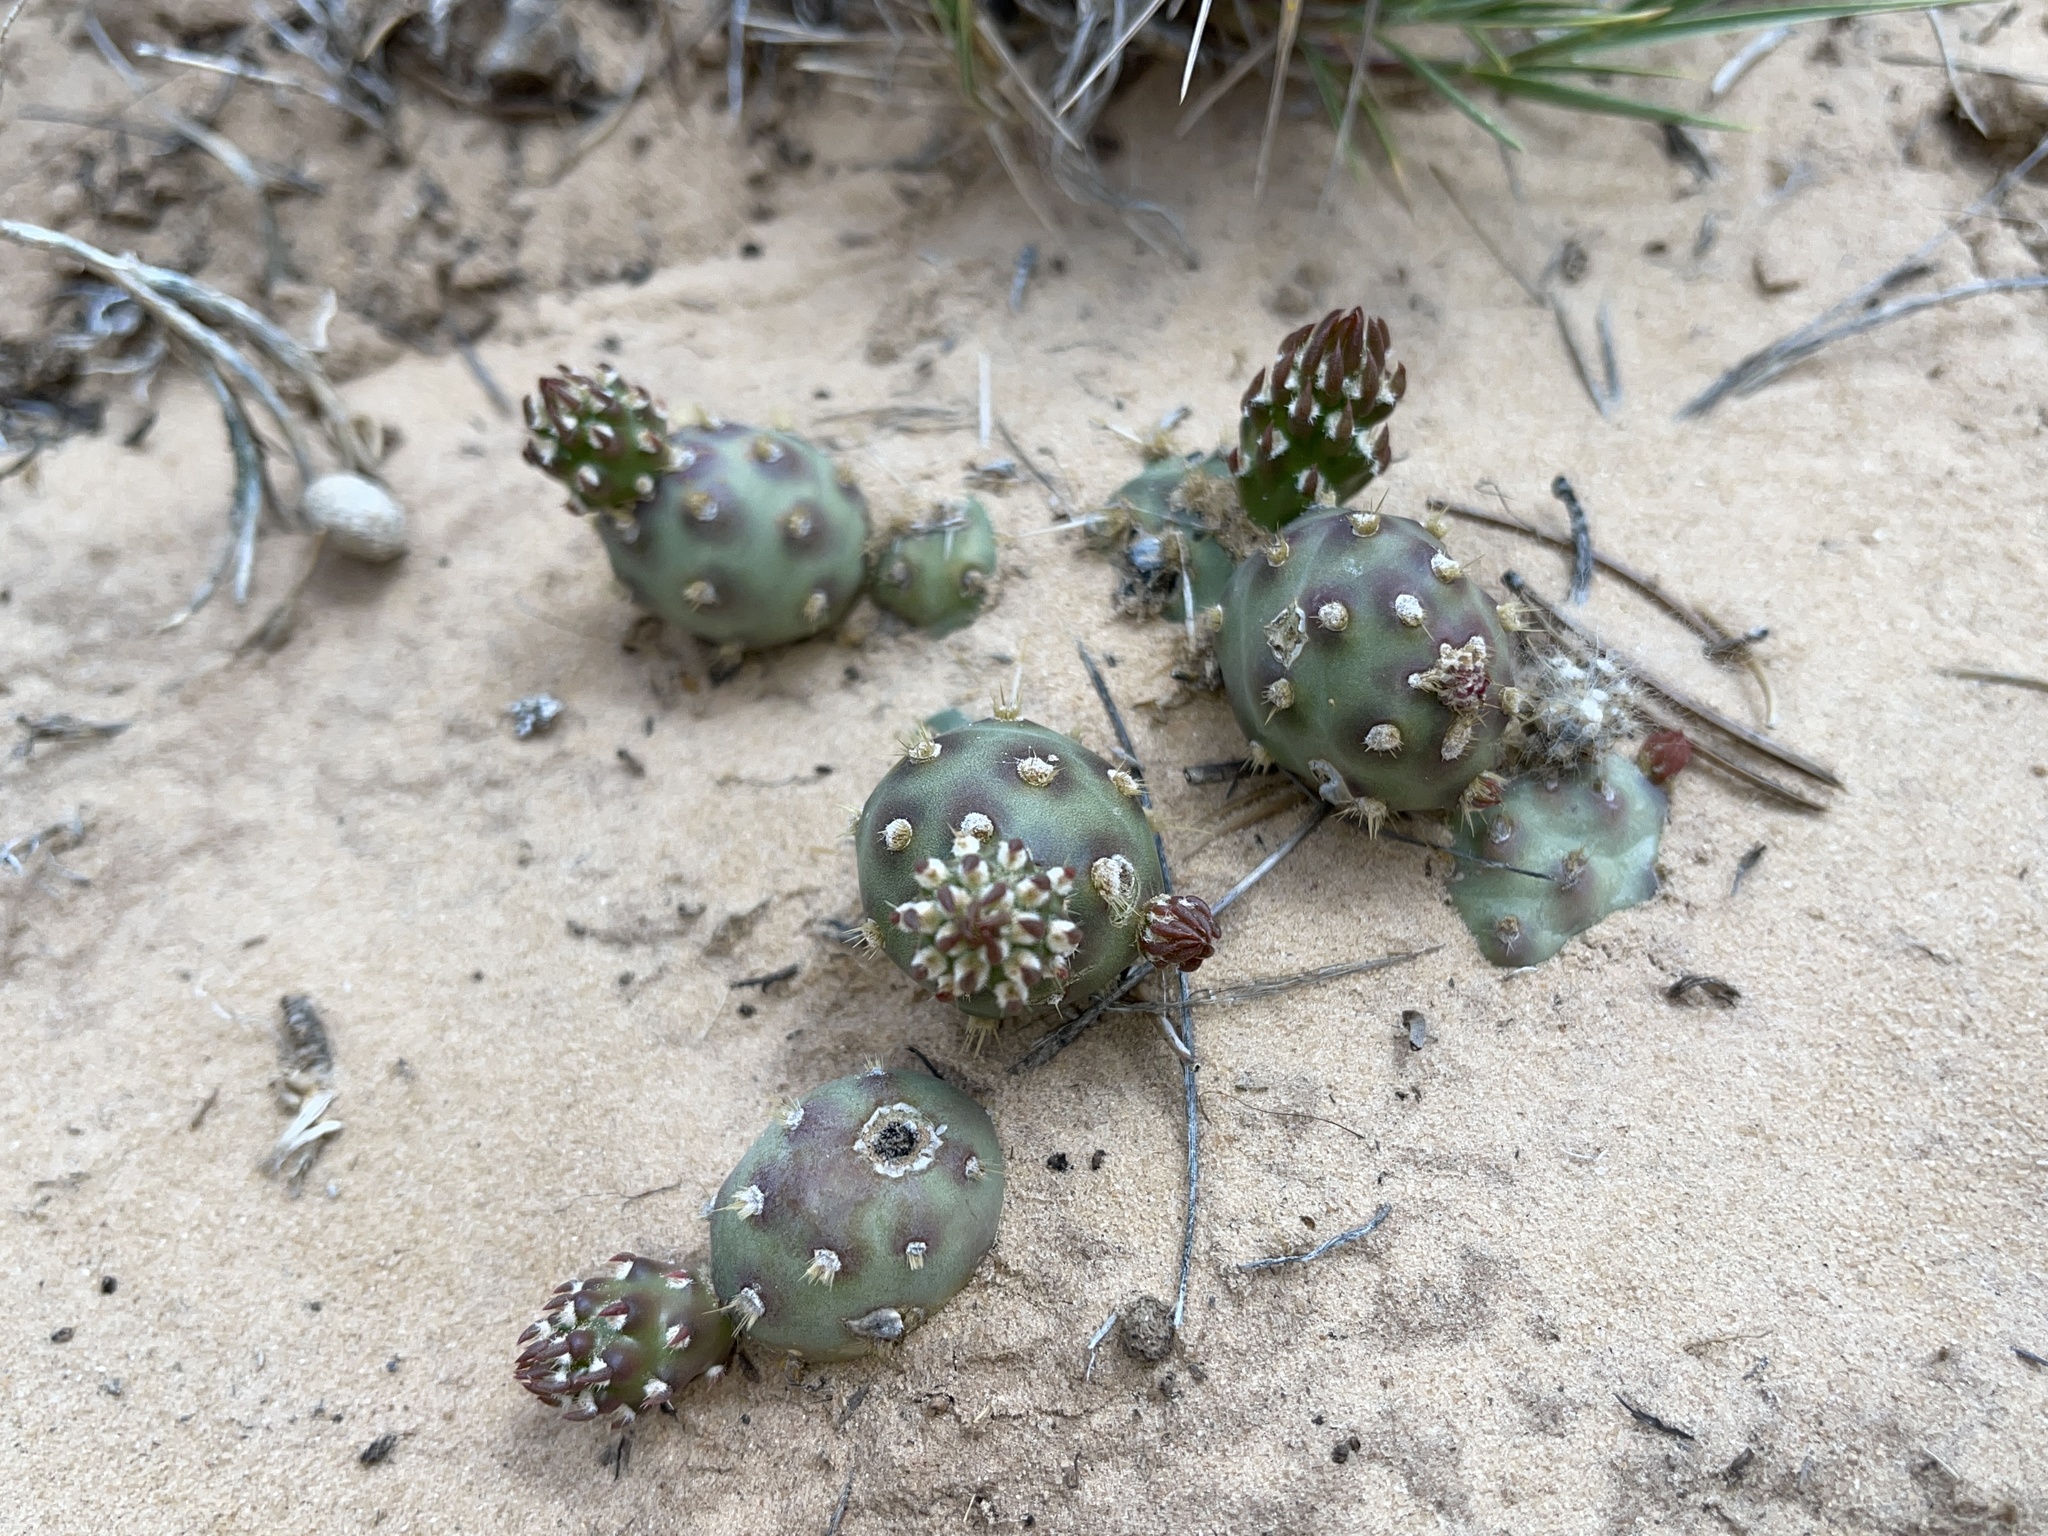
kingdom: Plantae
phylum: Tracheophyta
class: Magnoliopsida
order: Caryophyllales
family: Cactaceae
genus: Opuntia
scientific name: Opuntia fragilis
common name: Brittle cactus
